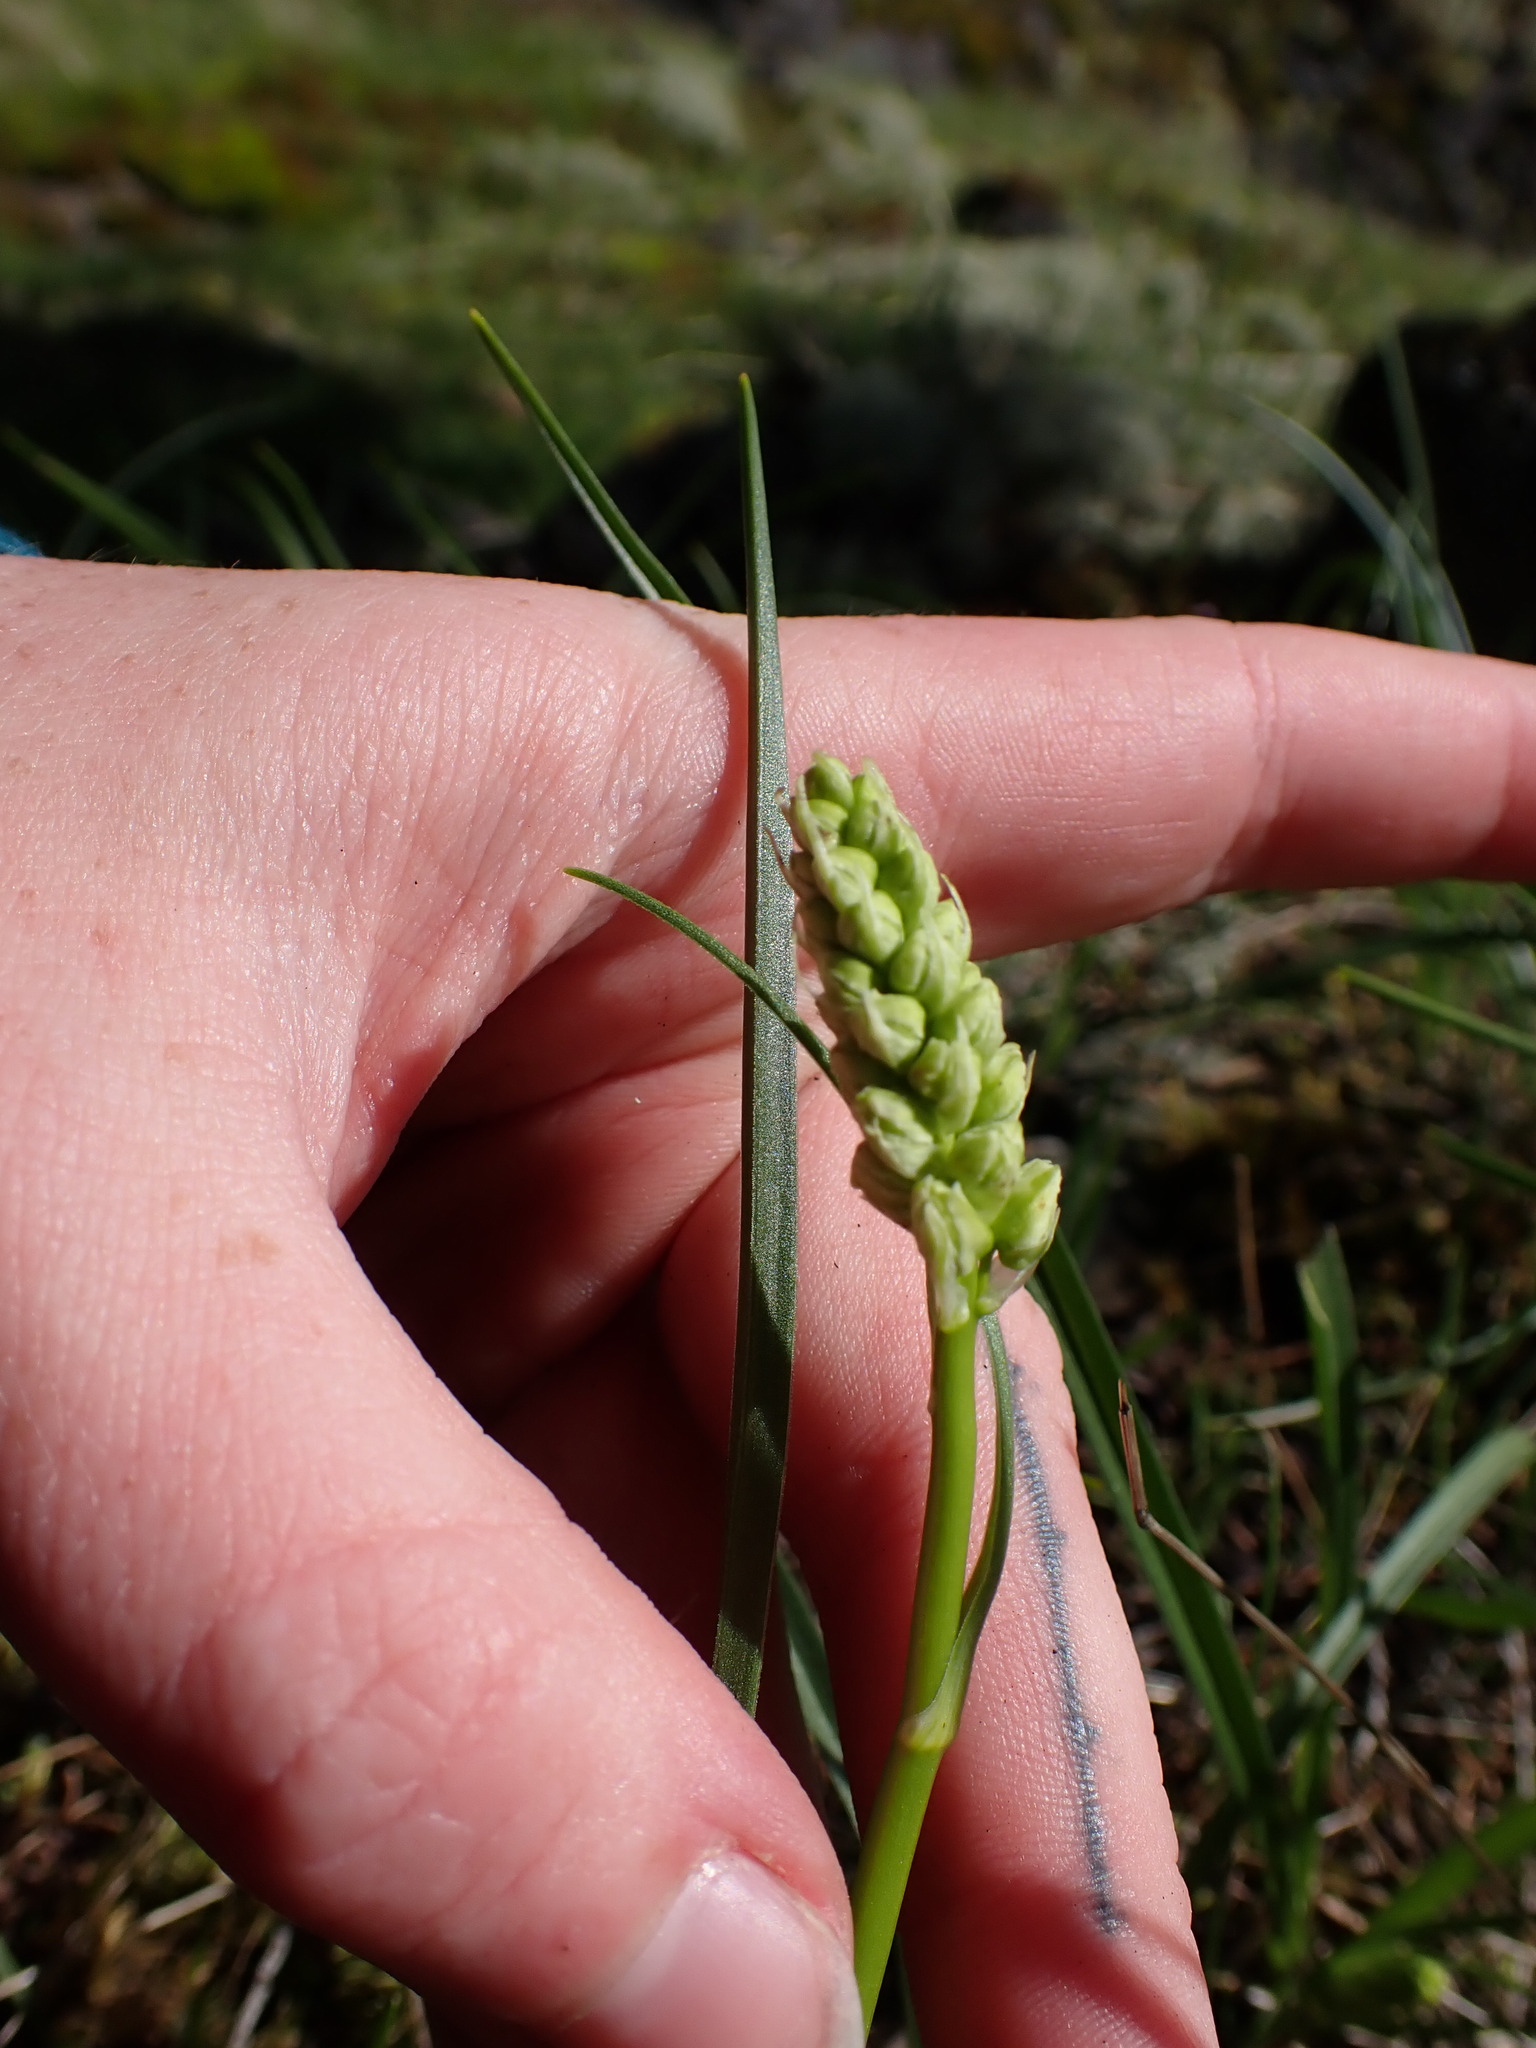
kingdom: Plantae
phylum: Tracheophyta
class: Liliopsida
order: Liliales
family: Melanthiaceae
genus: Toxicoscordion
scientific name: Toxicoscordion venenosum
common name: Meadow death camas
